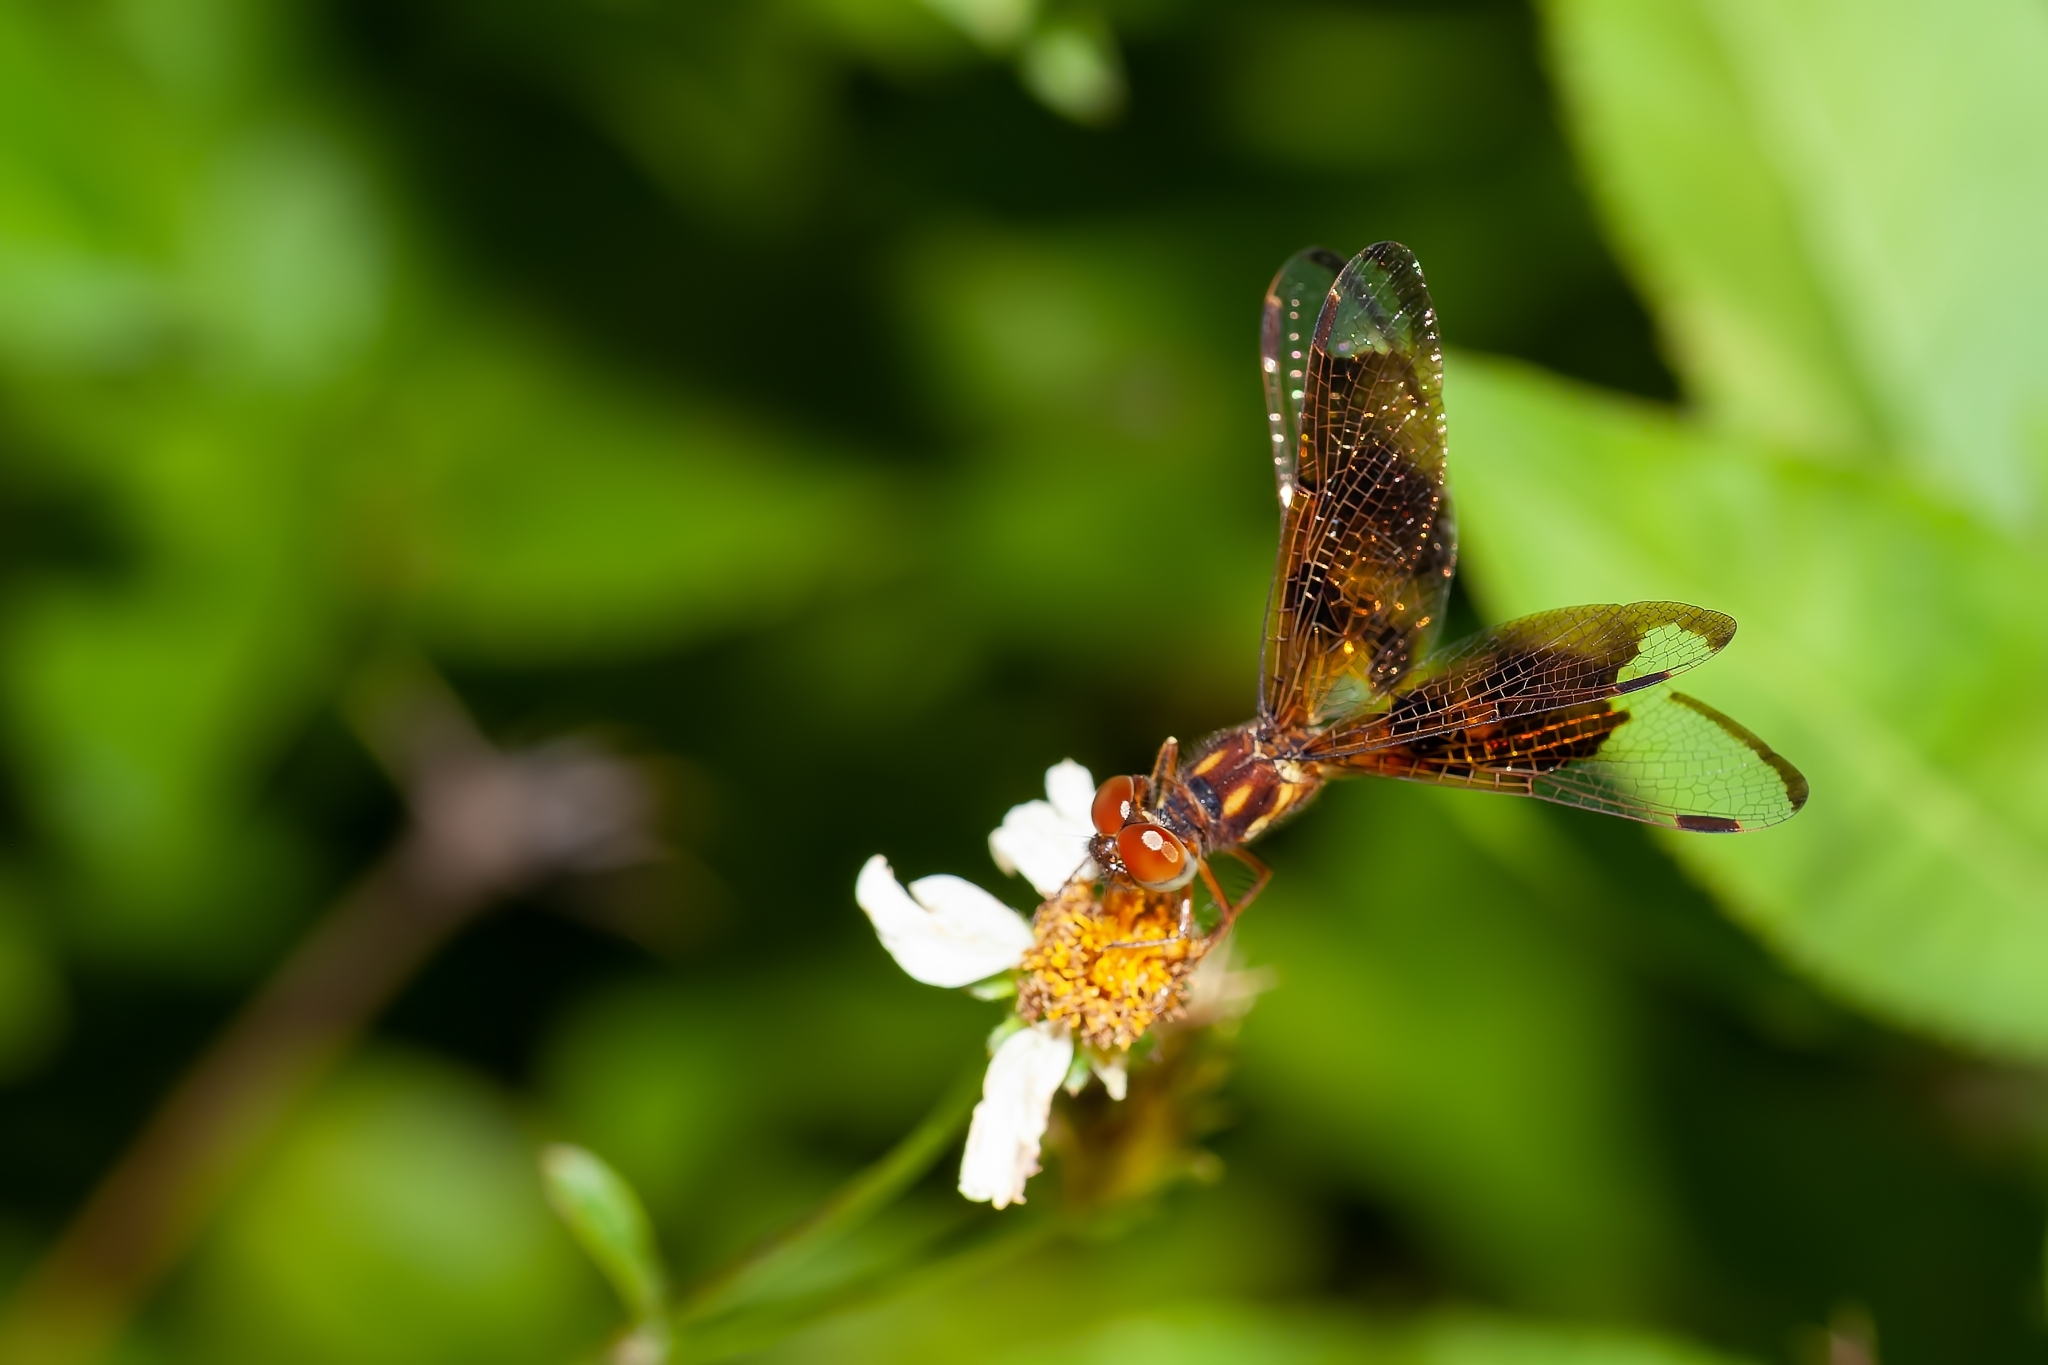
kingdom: Animalia
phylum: Arthropoda
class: Insecta
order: Odonata
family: Libellulidae
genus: Perithemis
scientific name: Perithemis tenera
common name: Eastern amberwing
